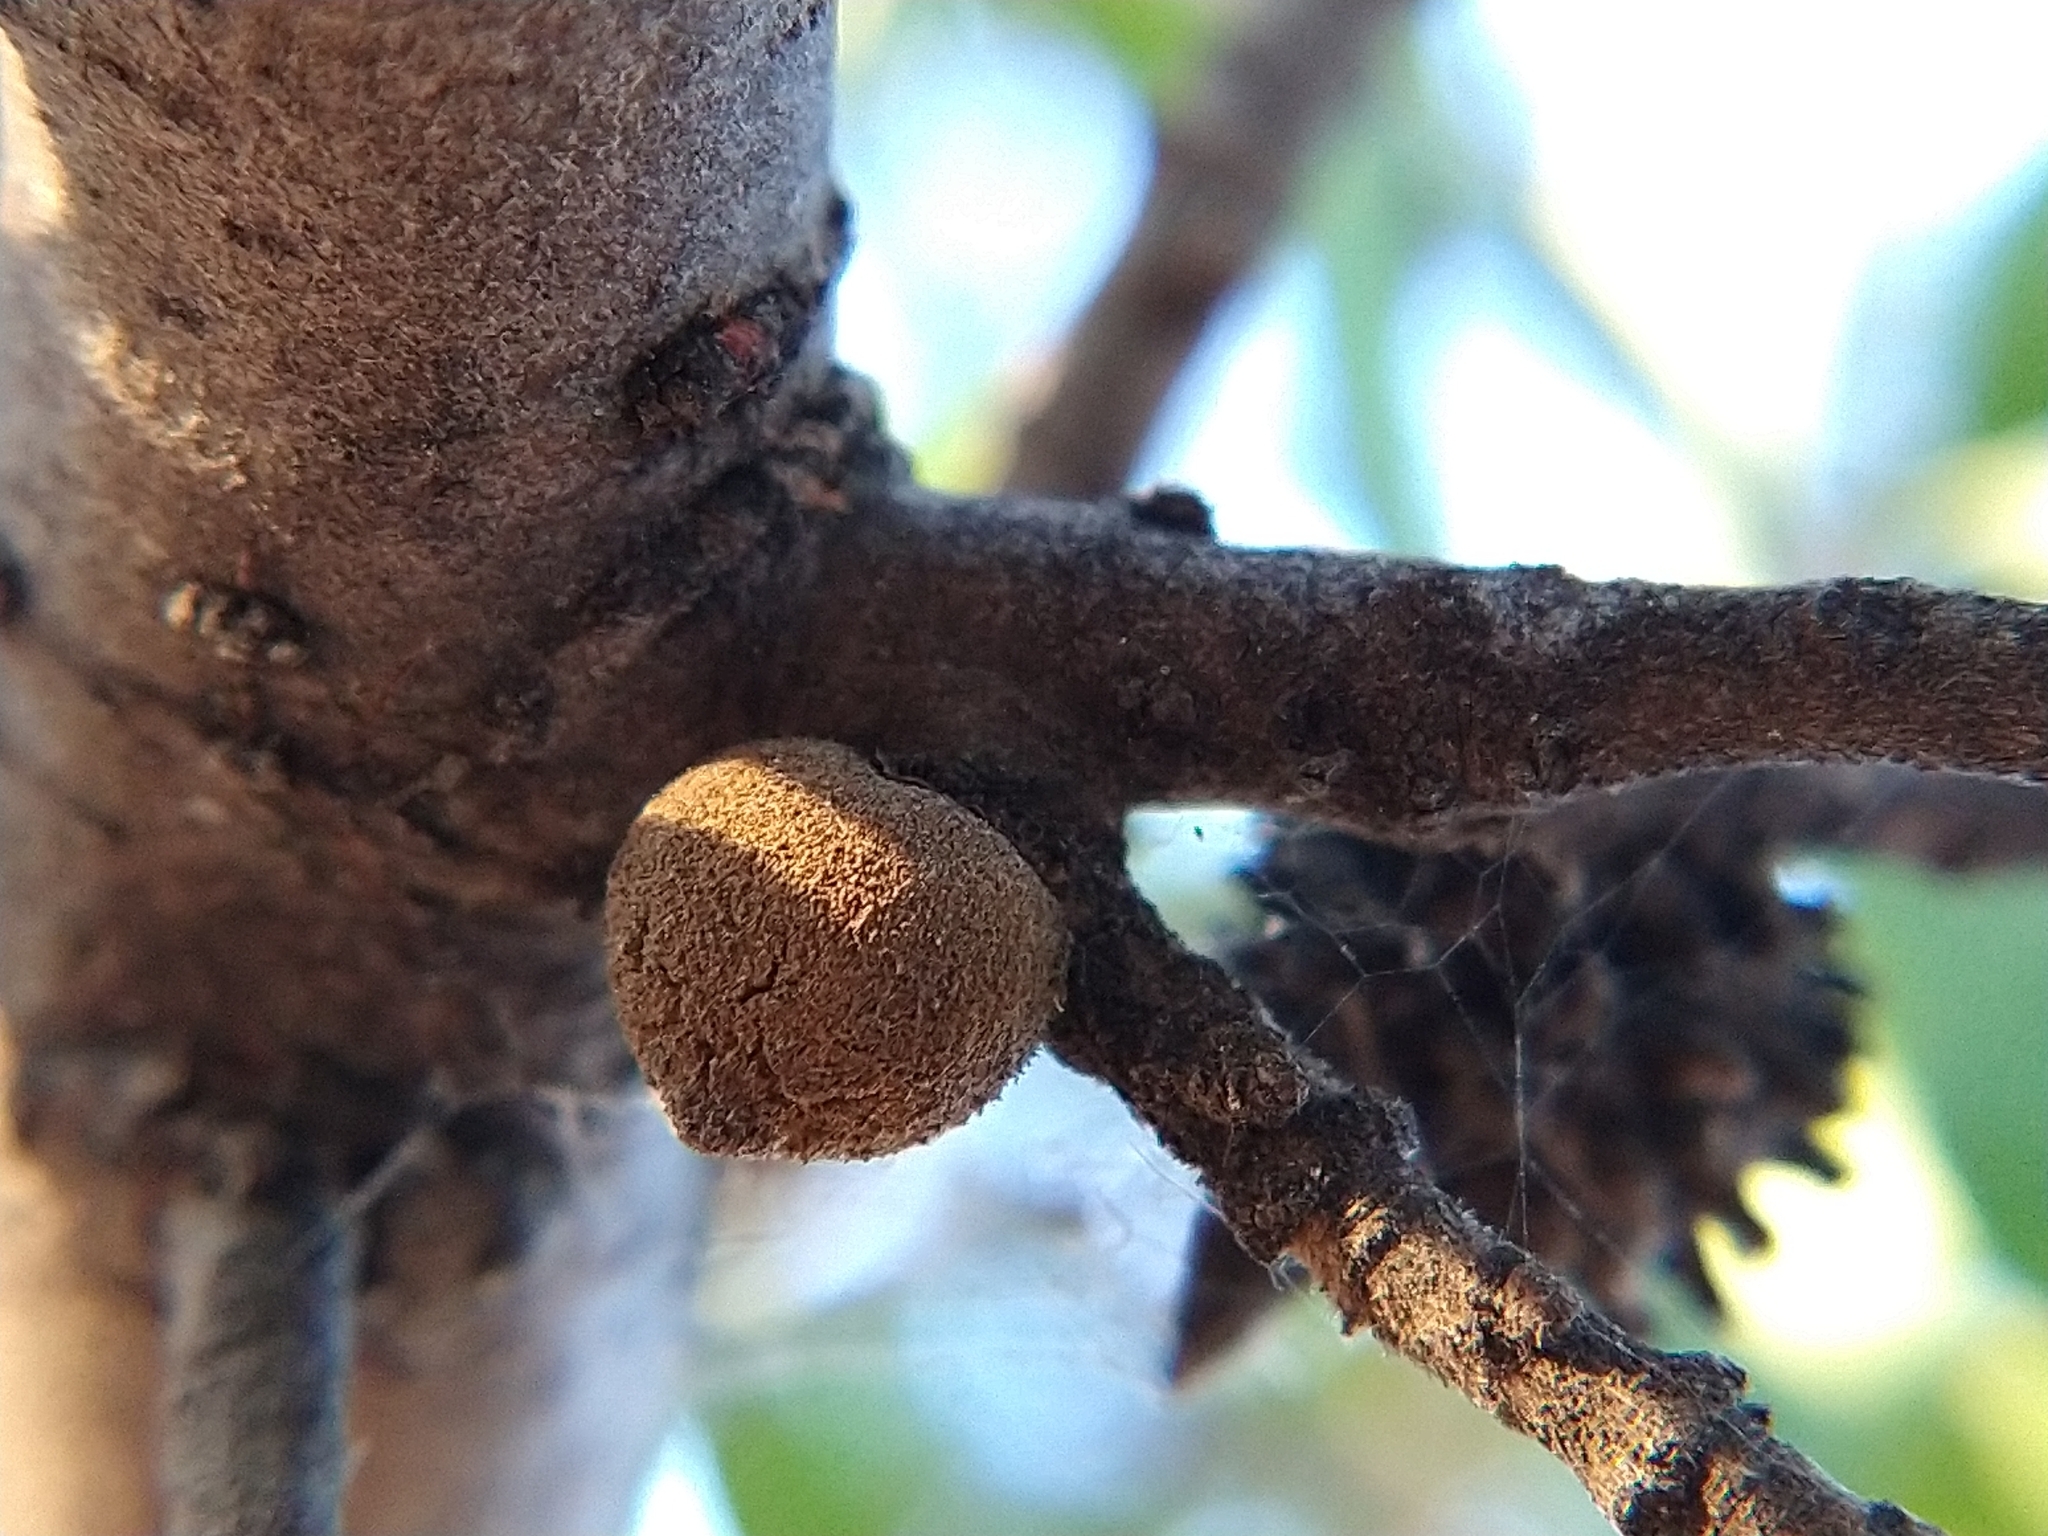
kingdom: Animalia
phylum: Arthropoda
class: Insecta
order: Hymenoptera
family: Cynipidae
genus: Disholcaspis
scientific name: Disholcaspis
